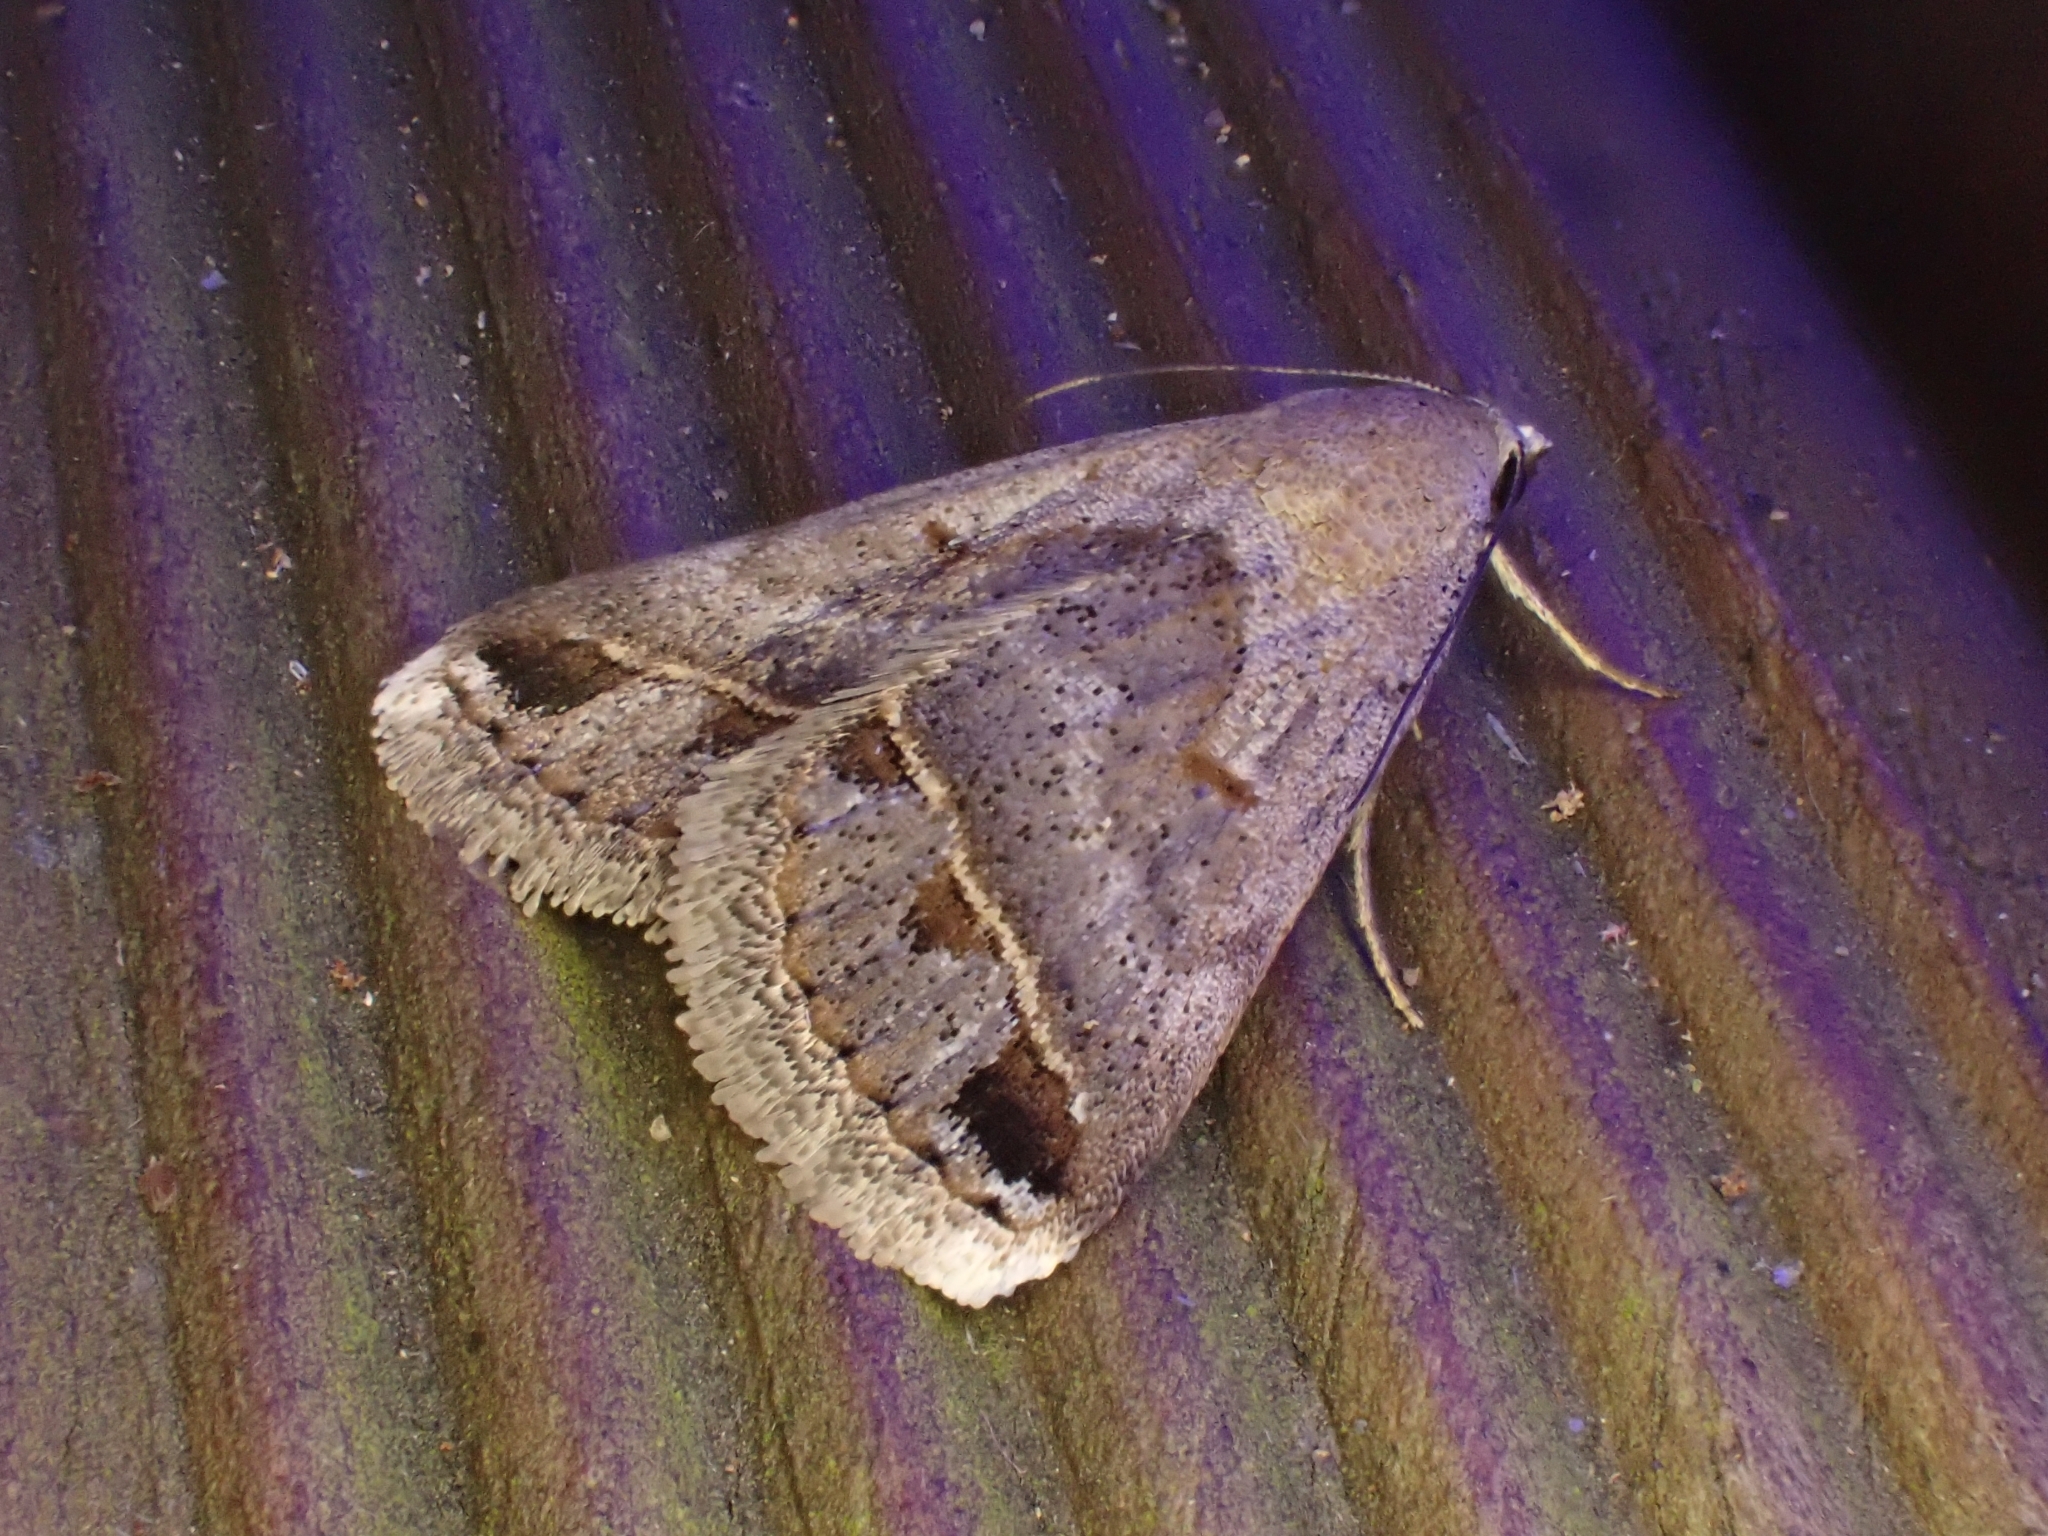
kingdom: Animalia
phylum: Arthropoda
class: Insecta
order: Lepidoptera
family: Erebidae
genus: Acantholipes
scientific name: Acantholipes trimeni
